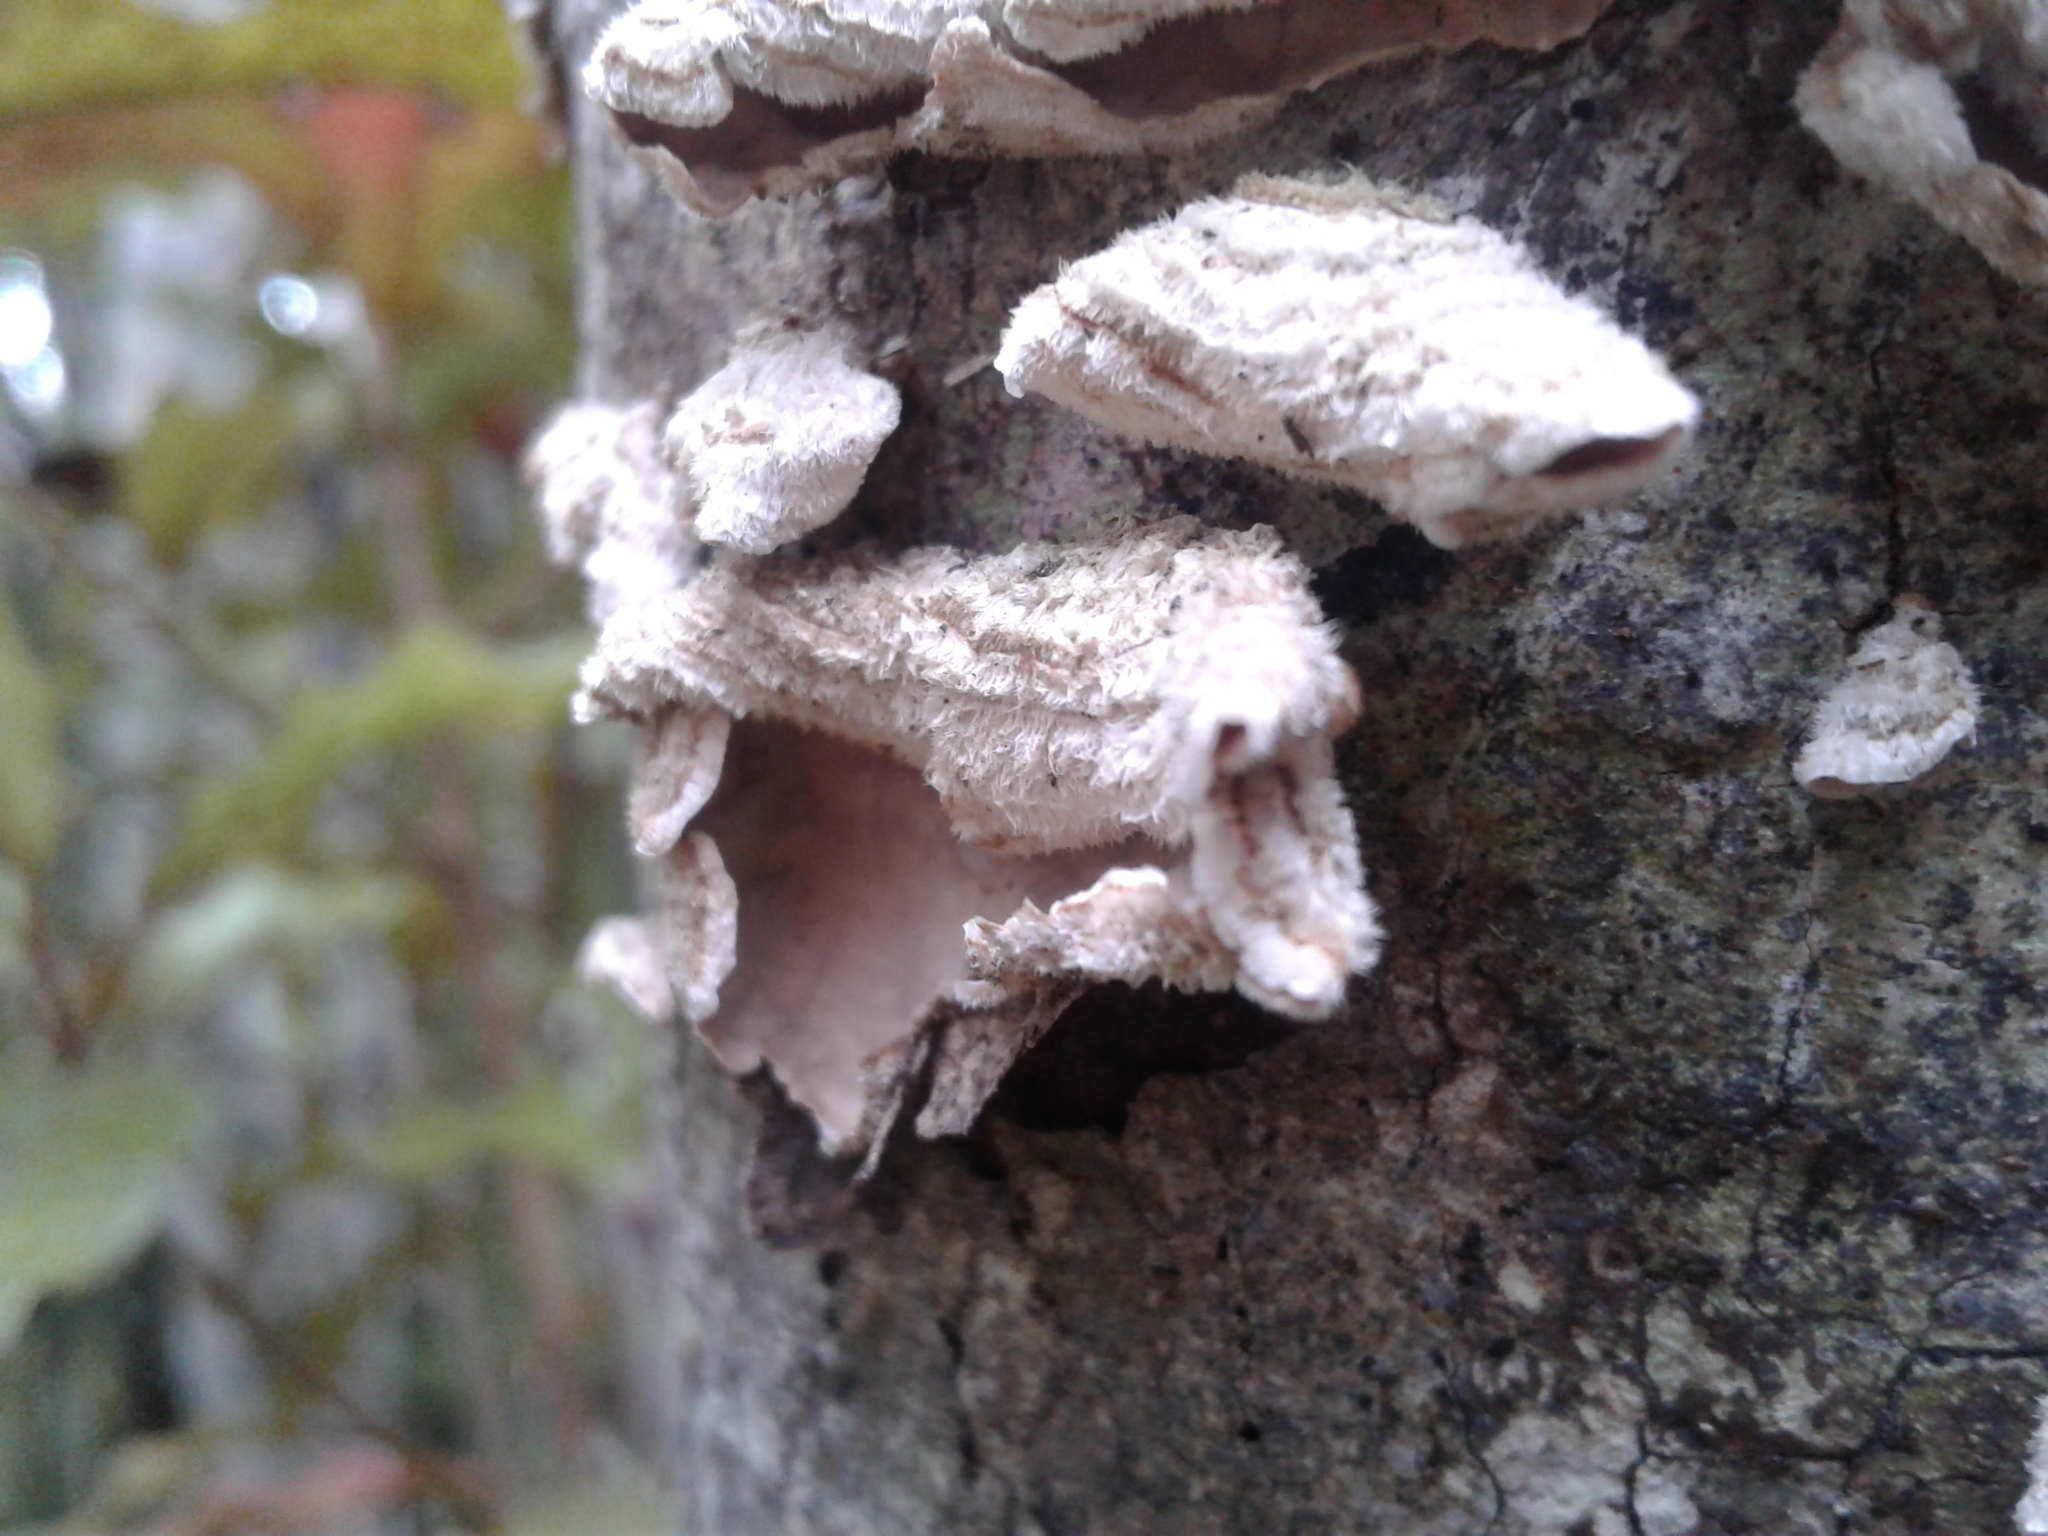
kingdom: Fungi
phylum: Basidiomycota
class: Agaricomycetes
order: Russulales
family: Stereaceae
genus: Stereum
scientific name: Stereum
